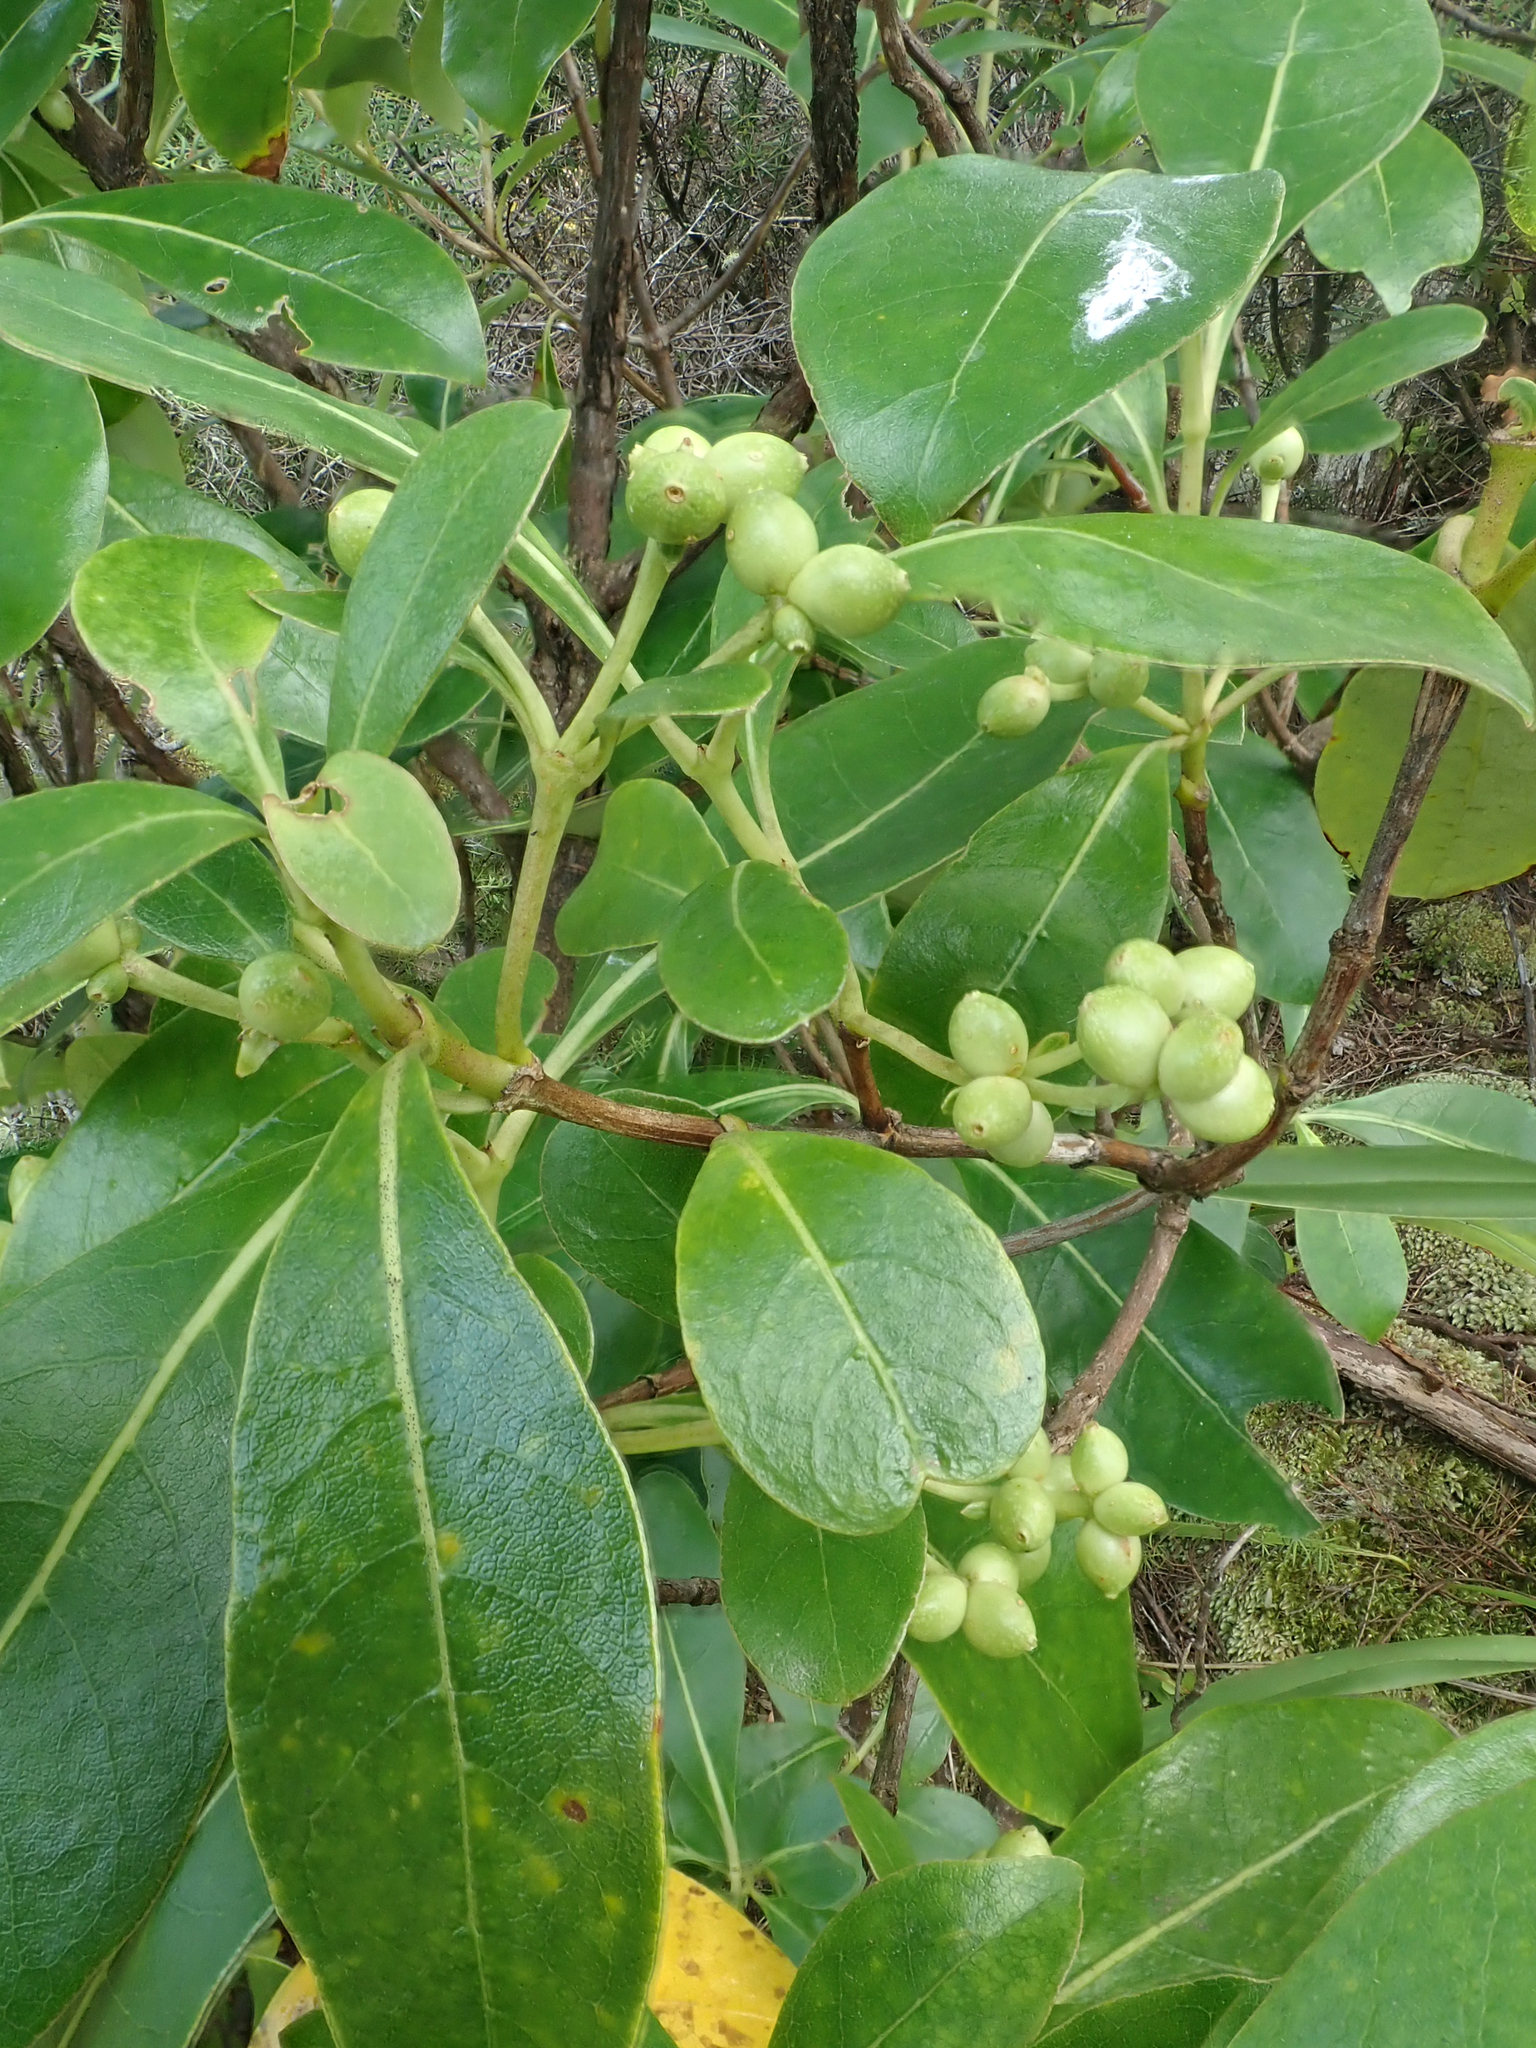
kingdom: Plantae
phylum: Tracheophyta
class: Magnoliopsida
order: Gentianales
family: Rubiaceae
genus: Coprosma
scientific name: Coprosma lucida
